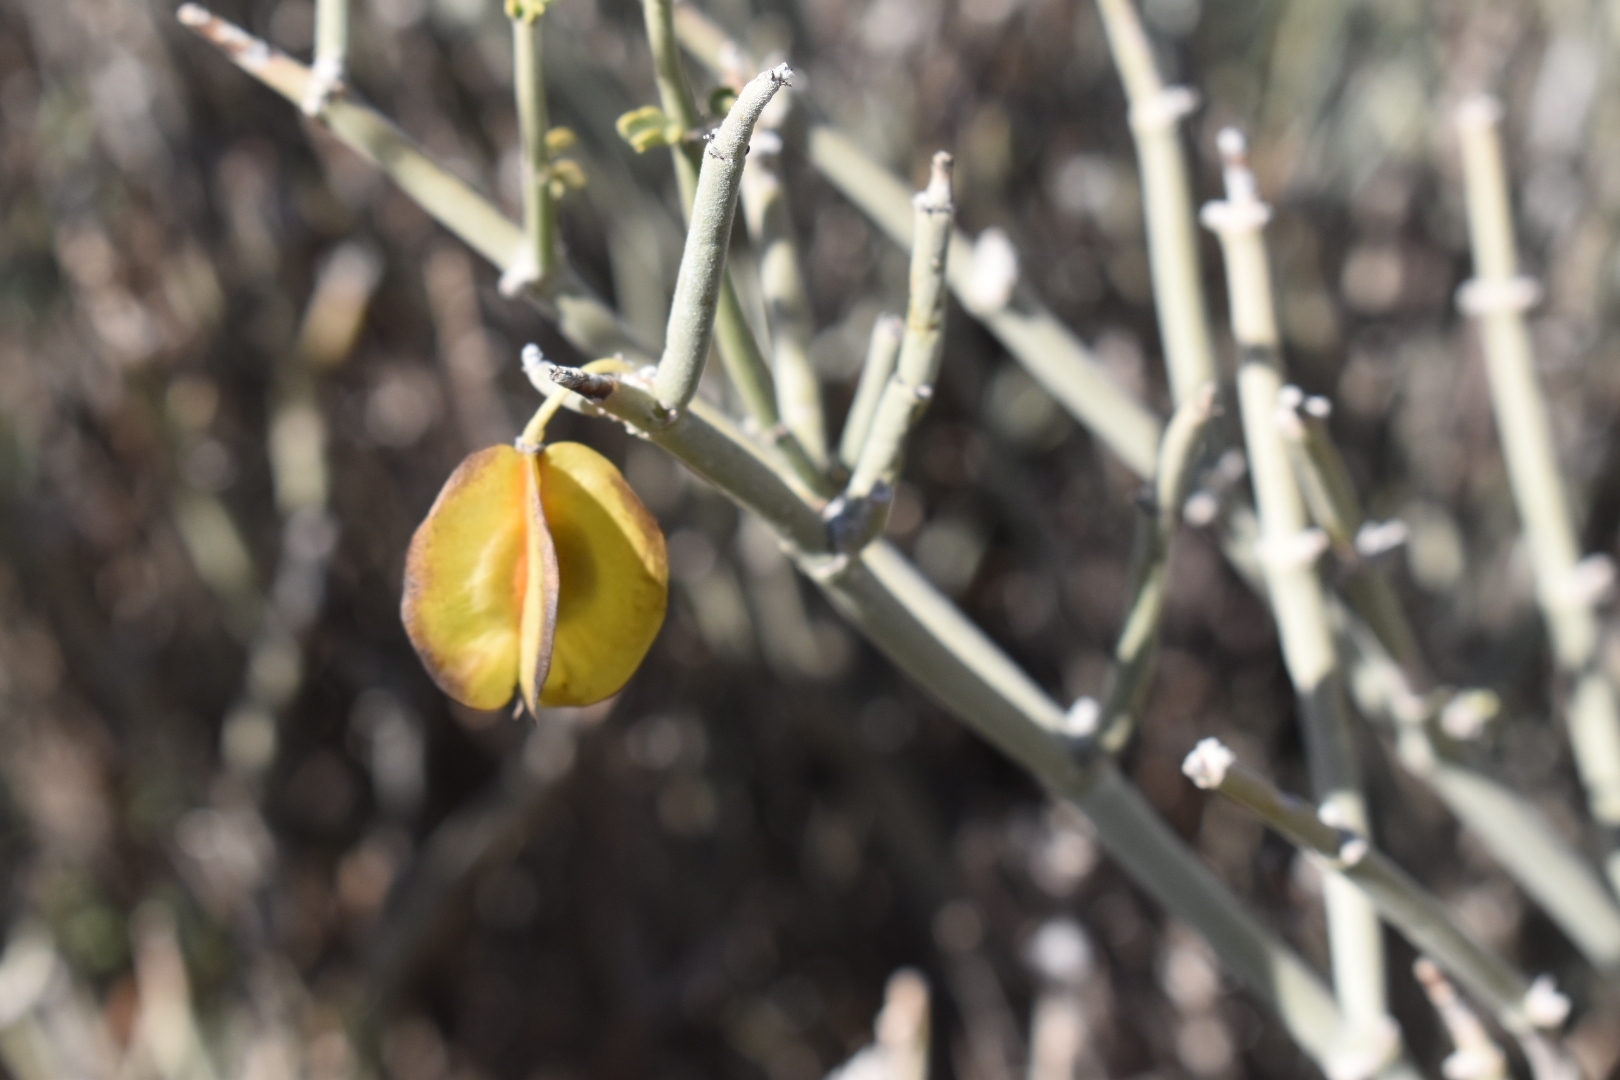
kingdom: Plantae
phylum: Tracheophyta
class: Magnoliopsida
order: Zygophyllales
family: Zygophyllaceae
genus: Bulnesia
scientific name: Bulnesia retama
